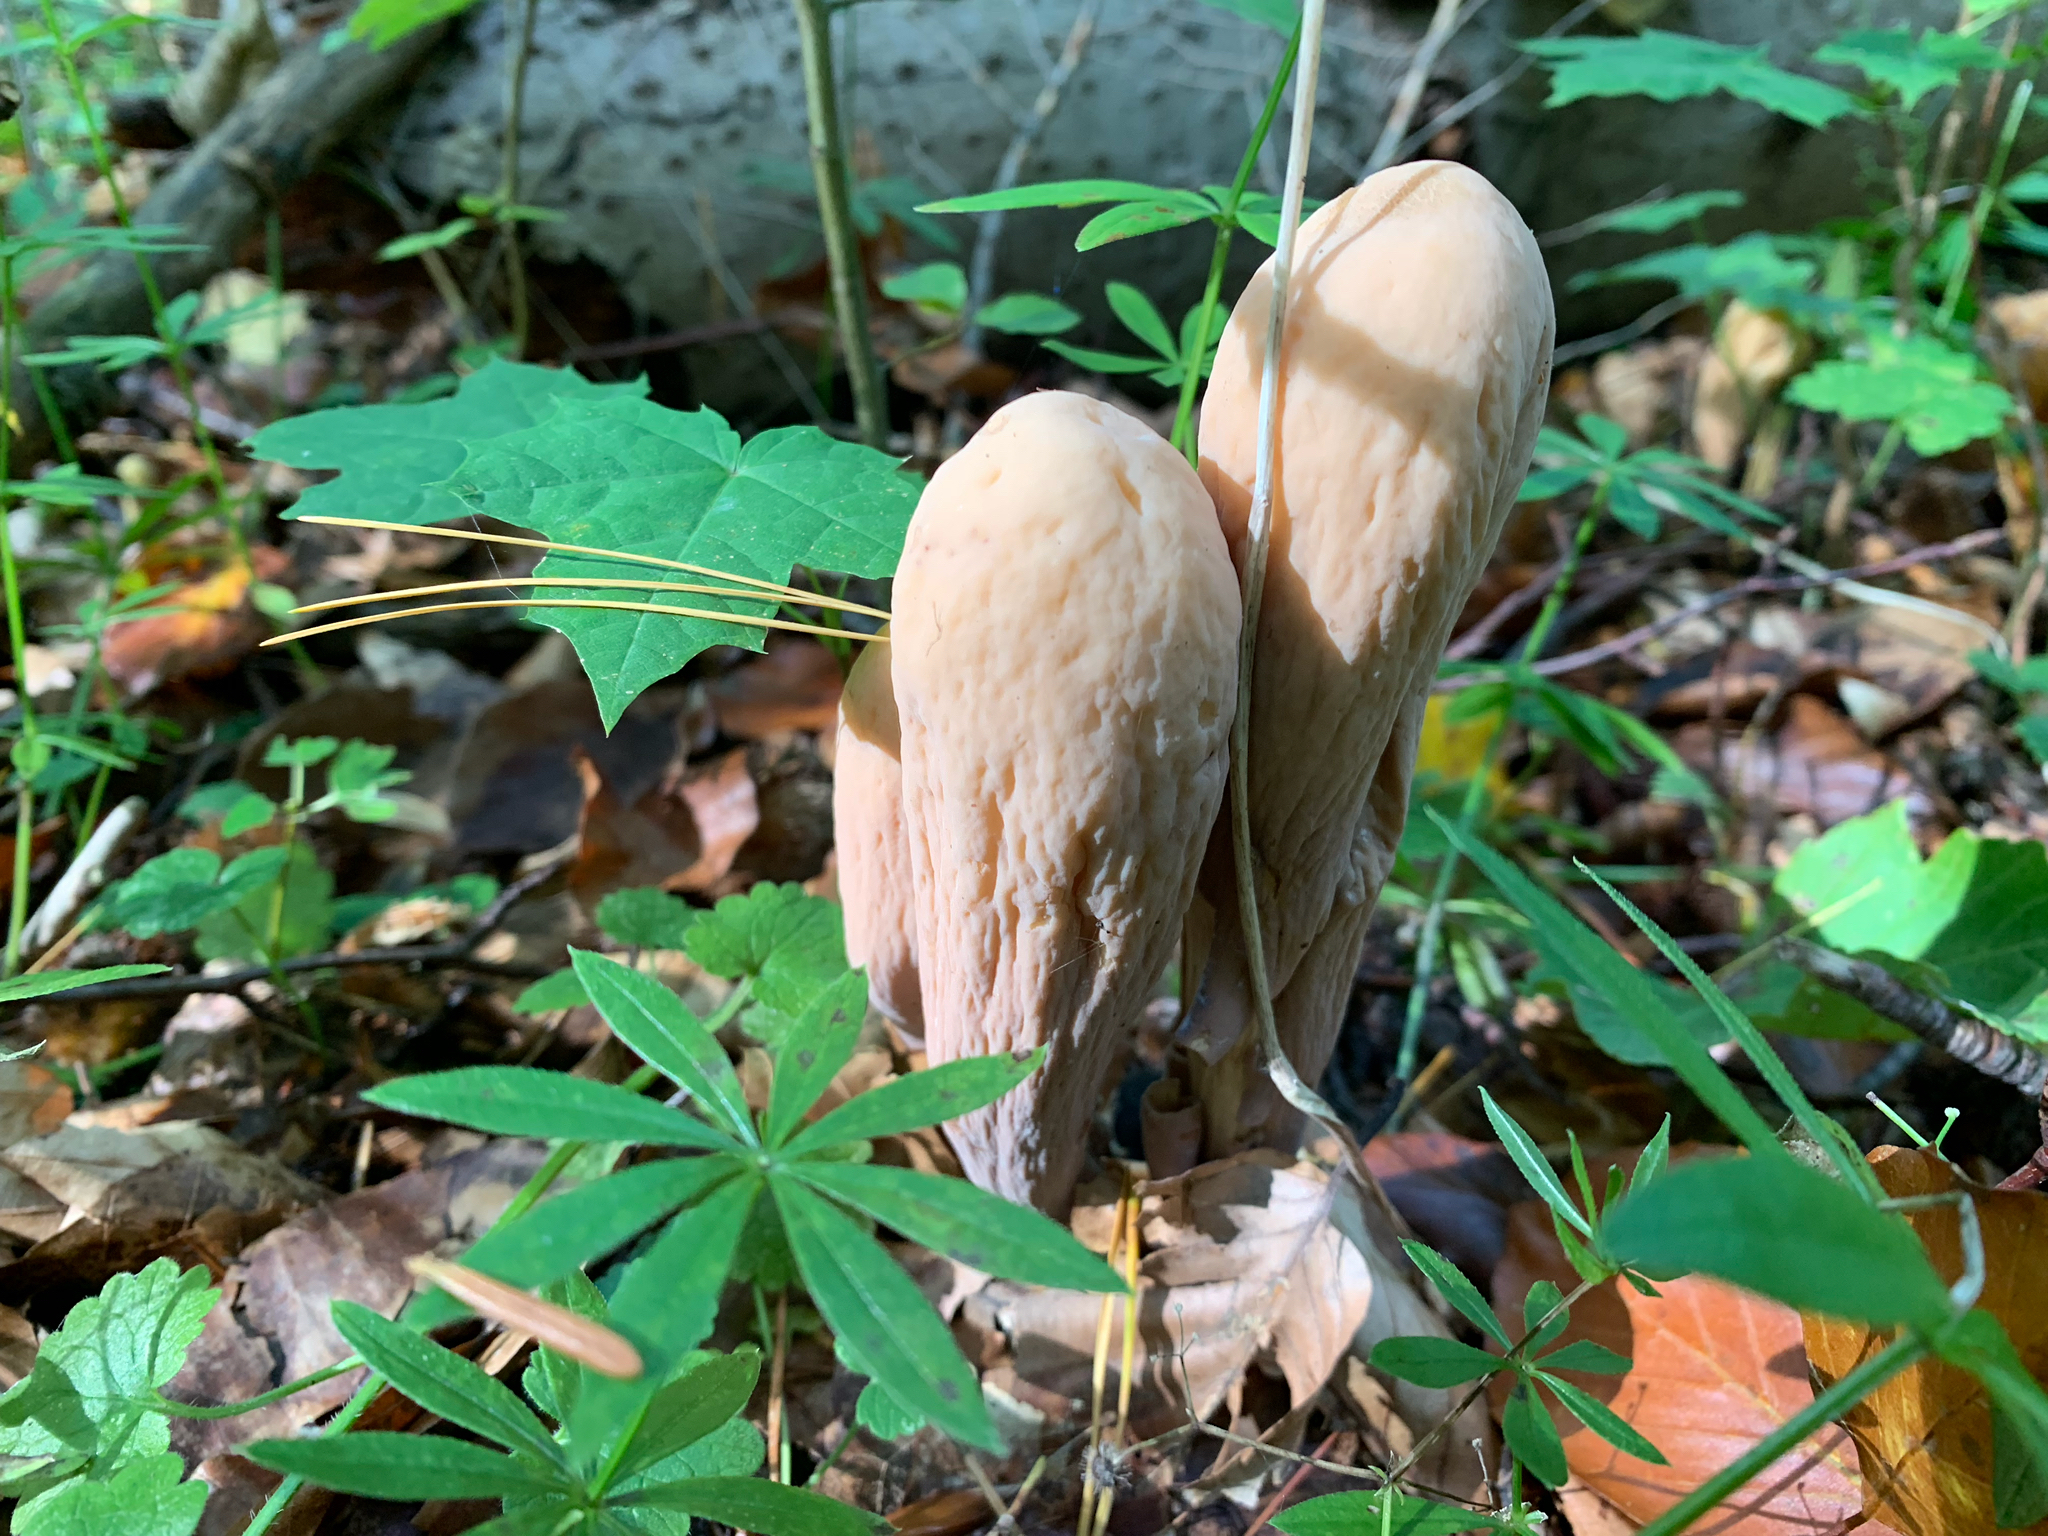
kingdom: Fungi
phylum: Basidiomycota
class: Agaricomycetes
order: Gomphales
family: Clavariadelphaceae
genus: Clavariadelphus
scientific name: Clavariadelphus pistillaris
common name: Giant club
